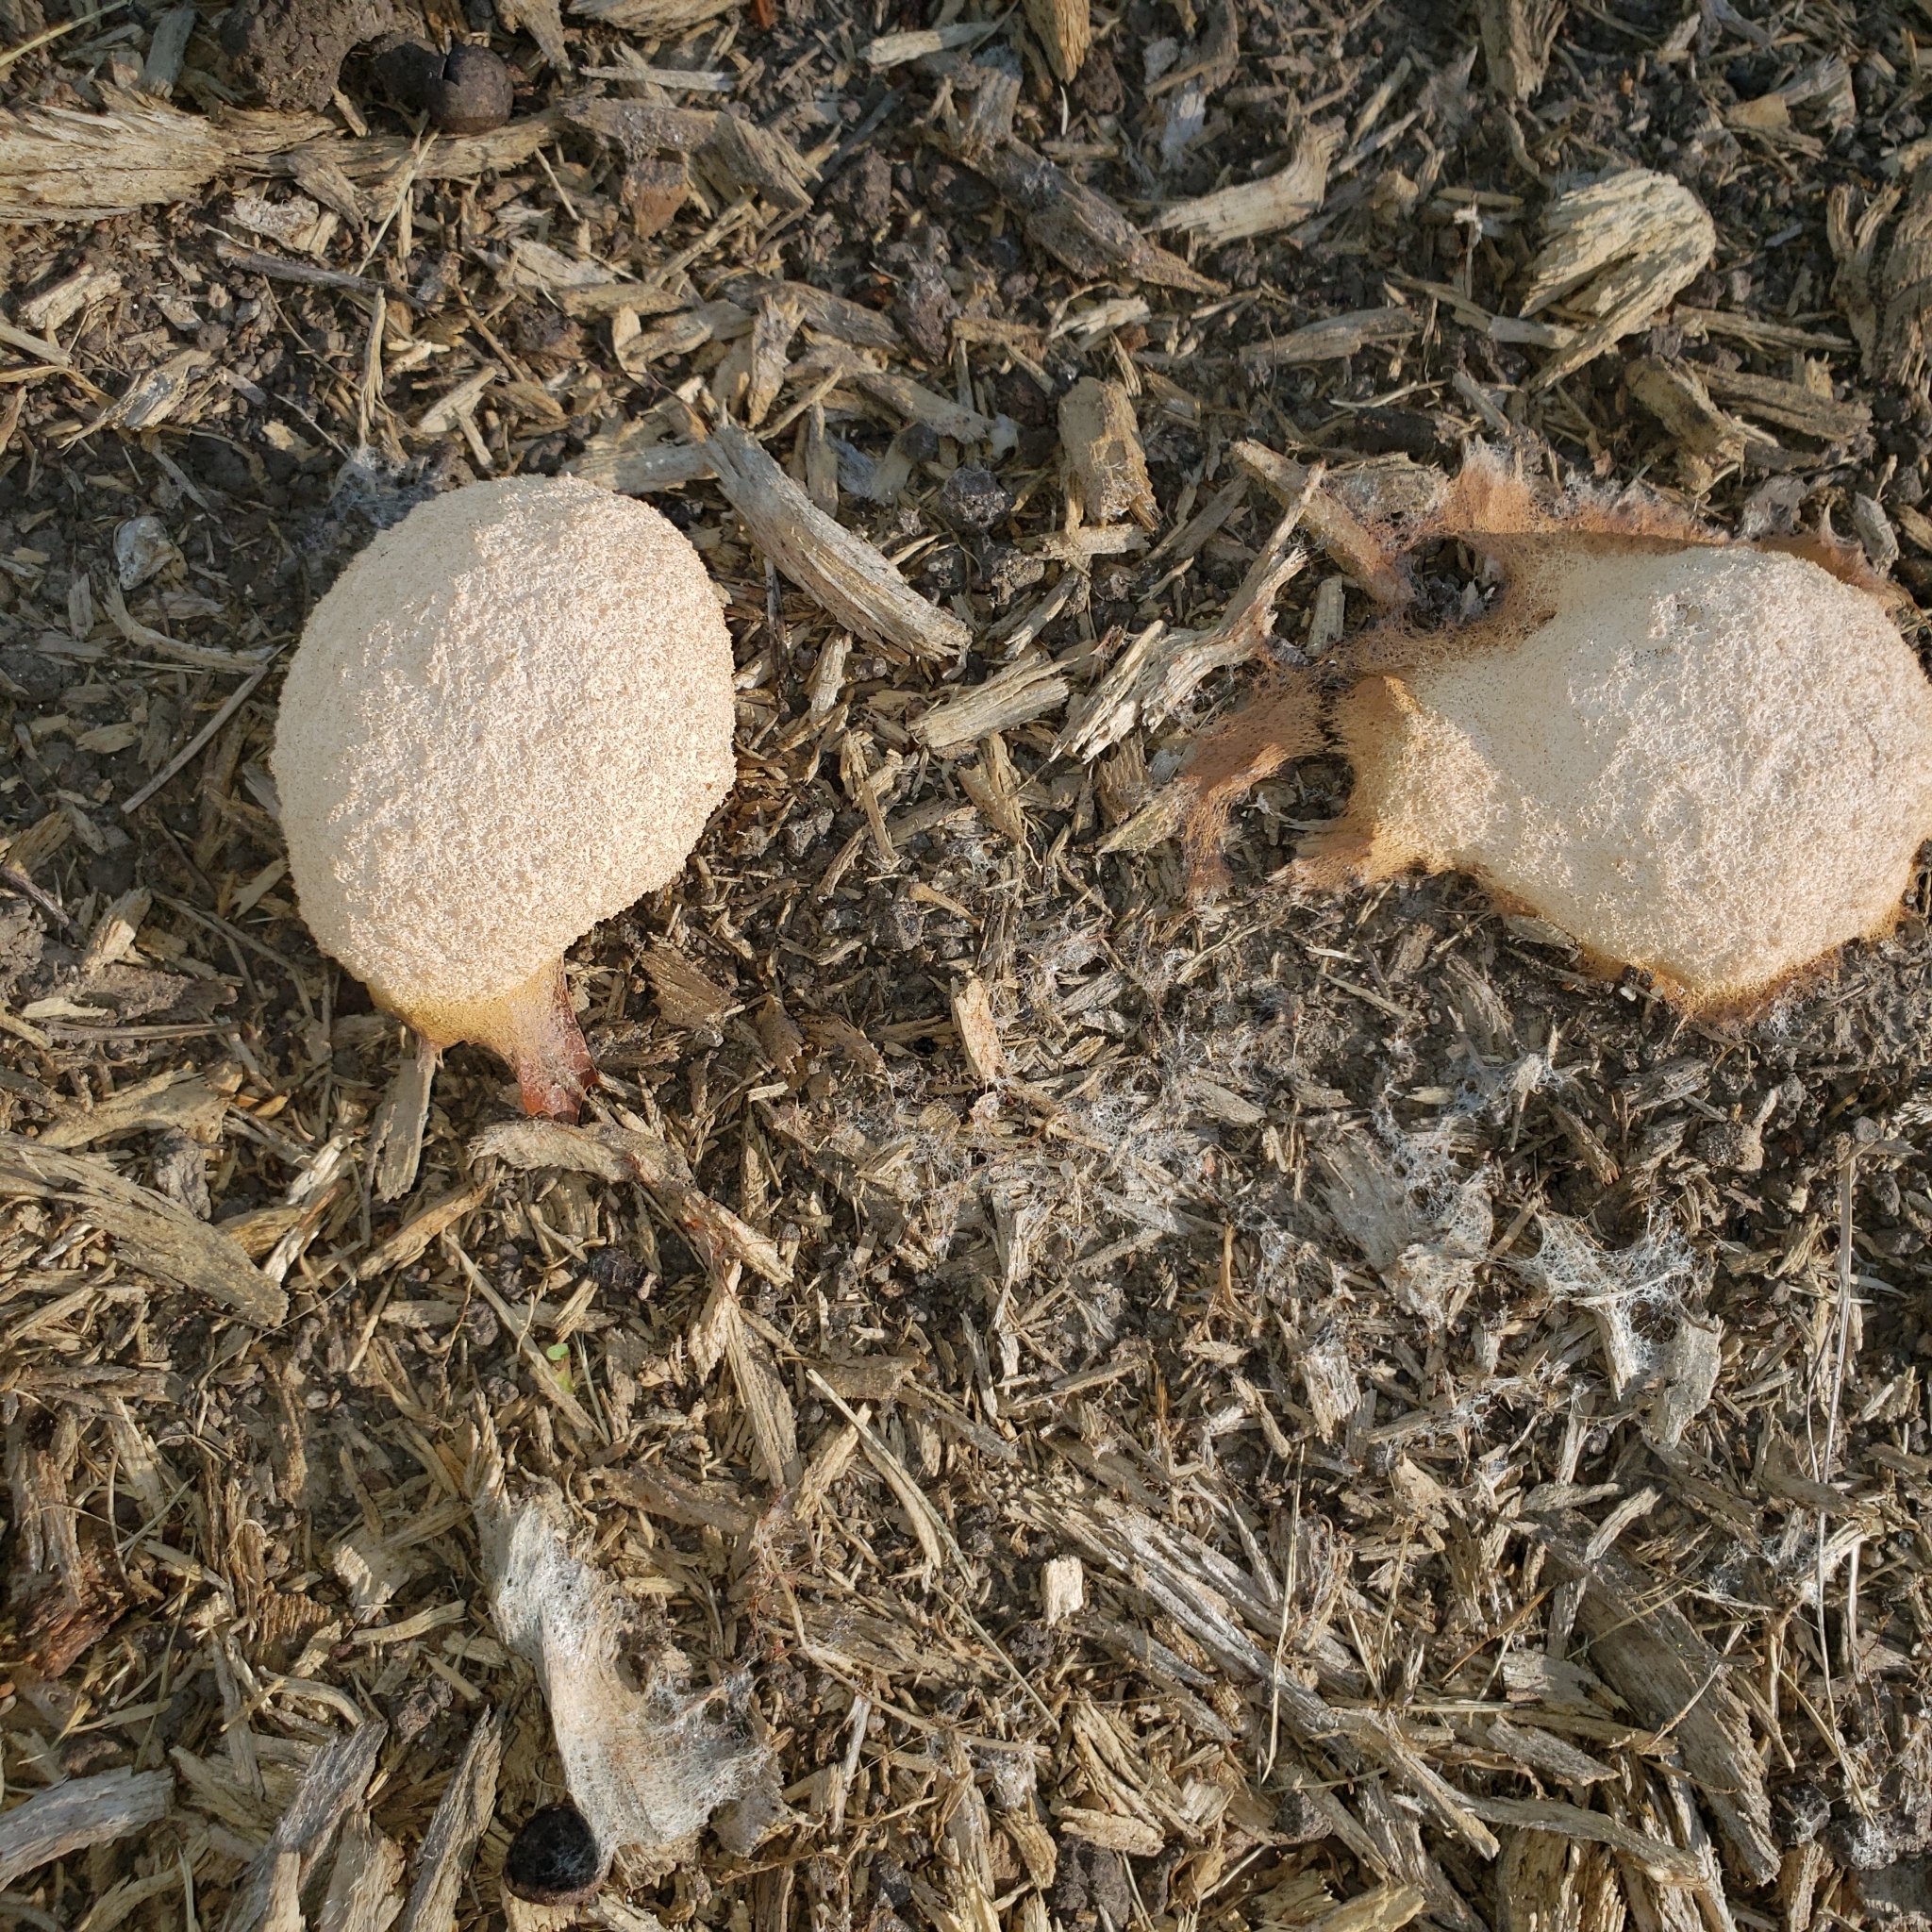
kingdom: Protozoa
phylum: Mycetozoa
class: Myxomycetes
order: Physarales
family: Physaraceae
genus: Fuligo
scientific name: Fuligo septica
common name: Dog vomit slime mold
